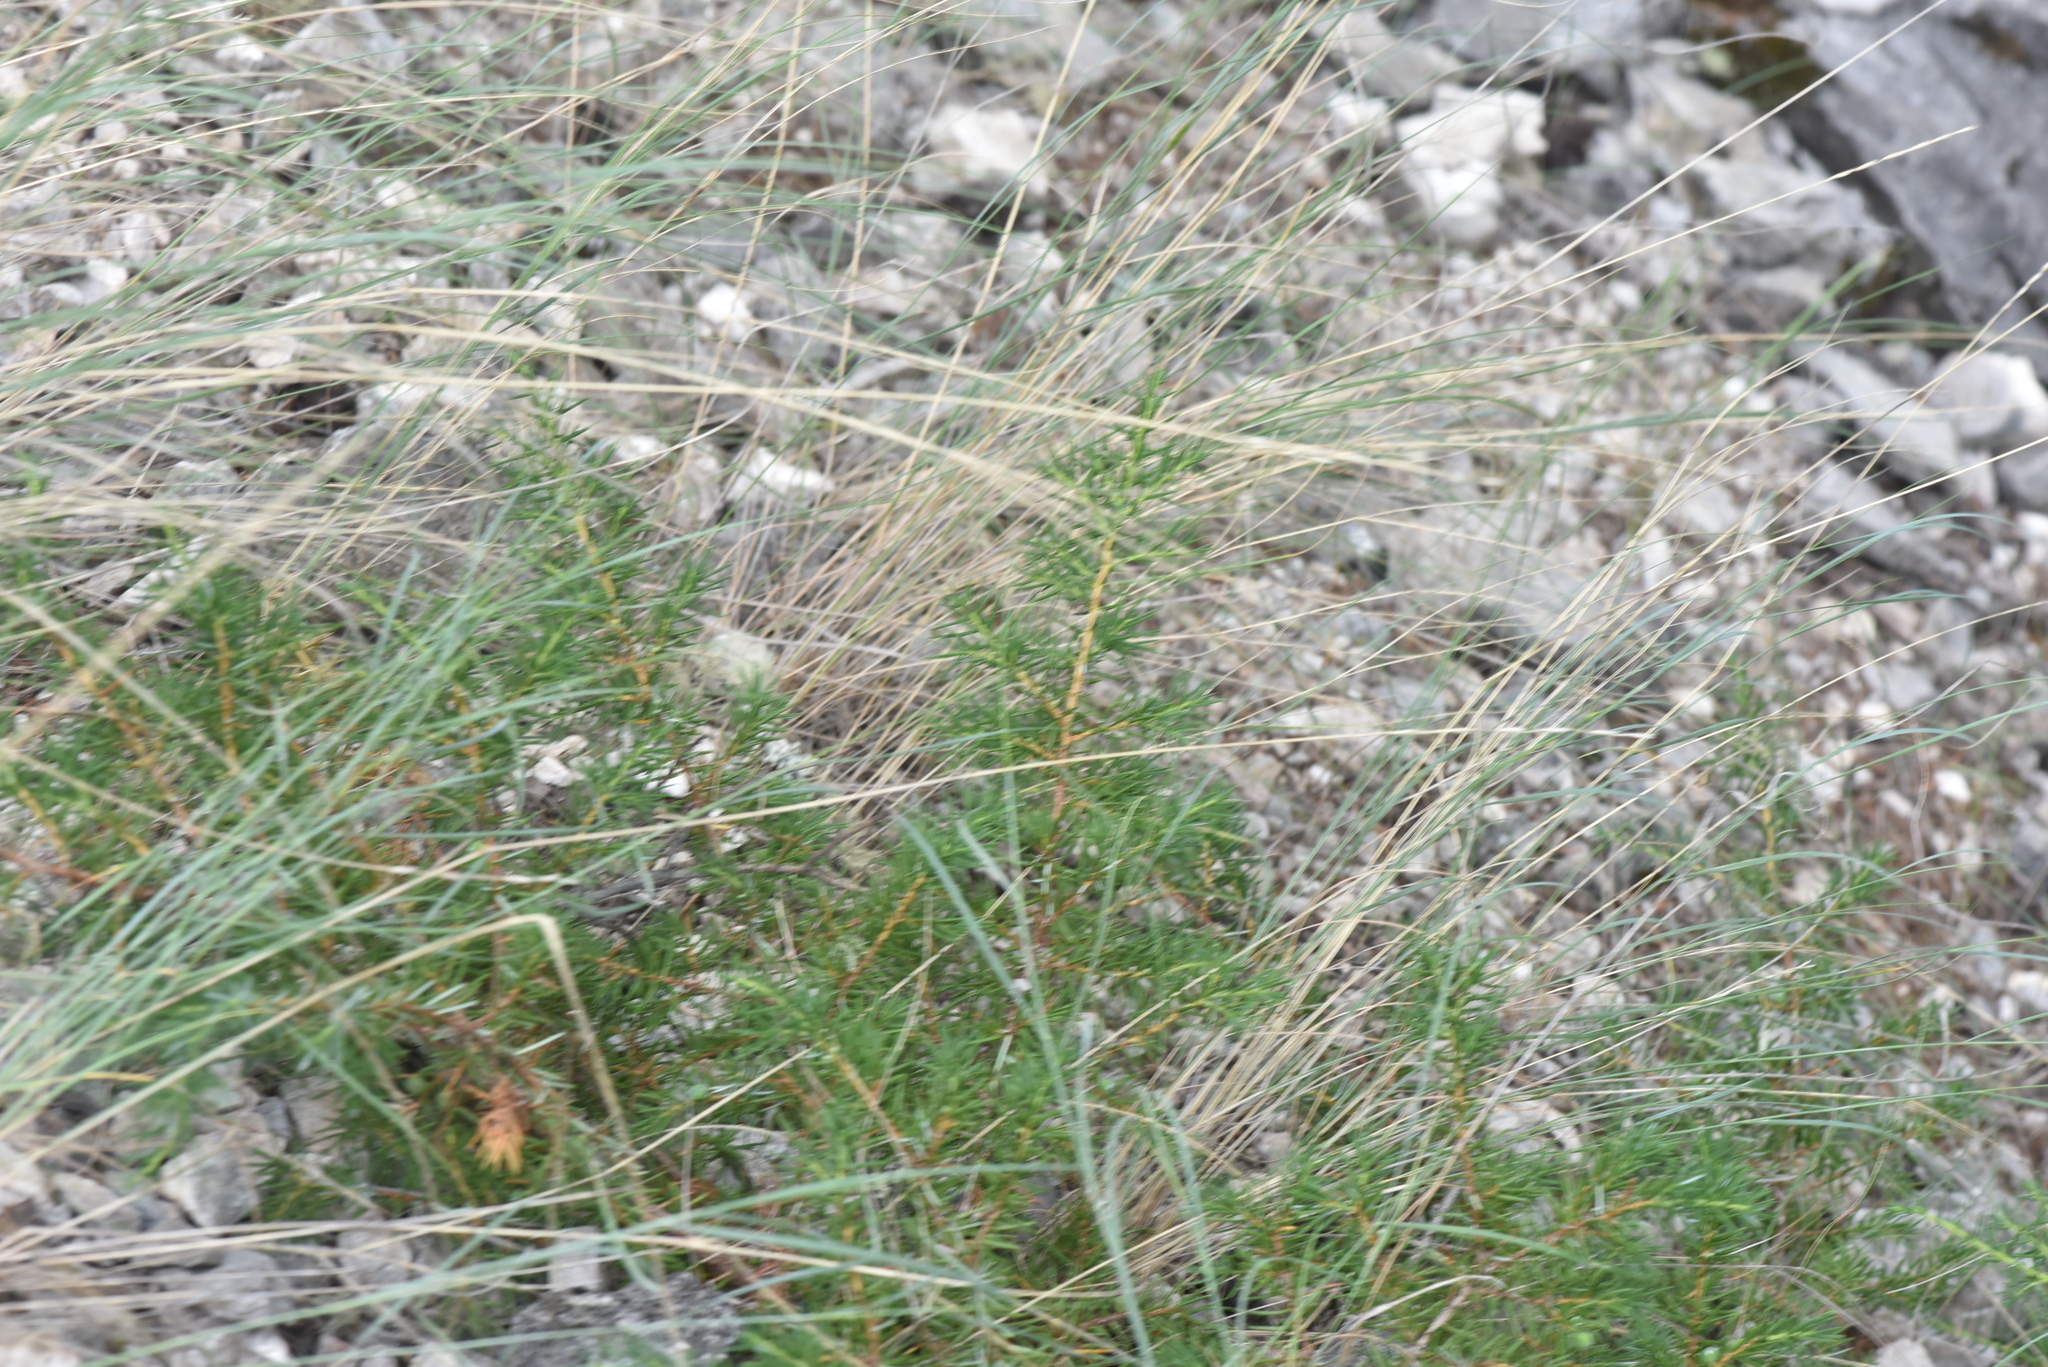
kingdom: Plantae
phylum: Tracheophyta
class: Pinopsida
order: Pinales
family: Cupressaceae
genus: Juniperus
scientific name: Juniperus communis
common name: Common juniper
